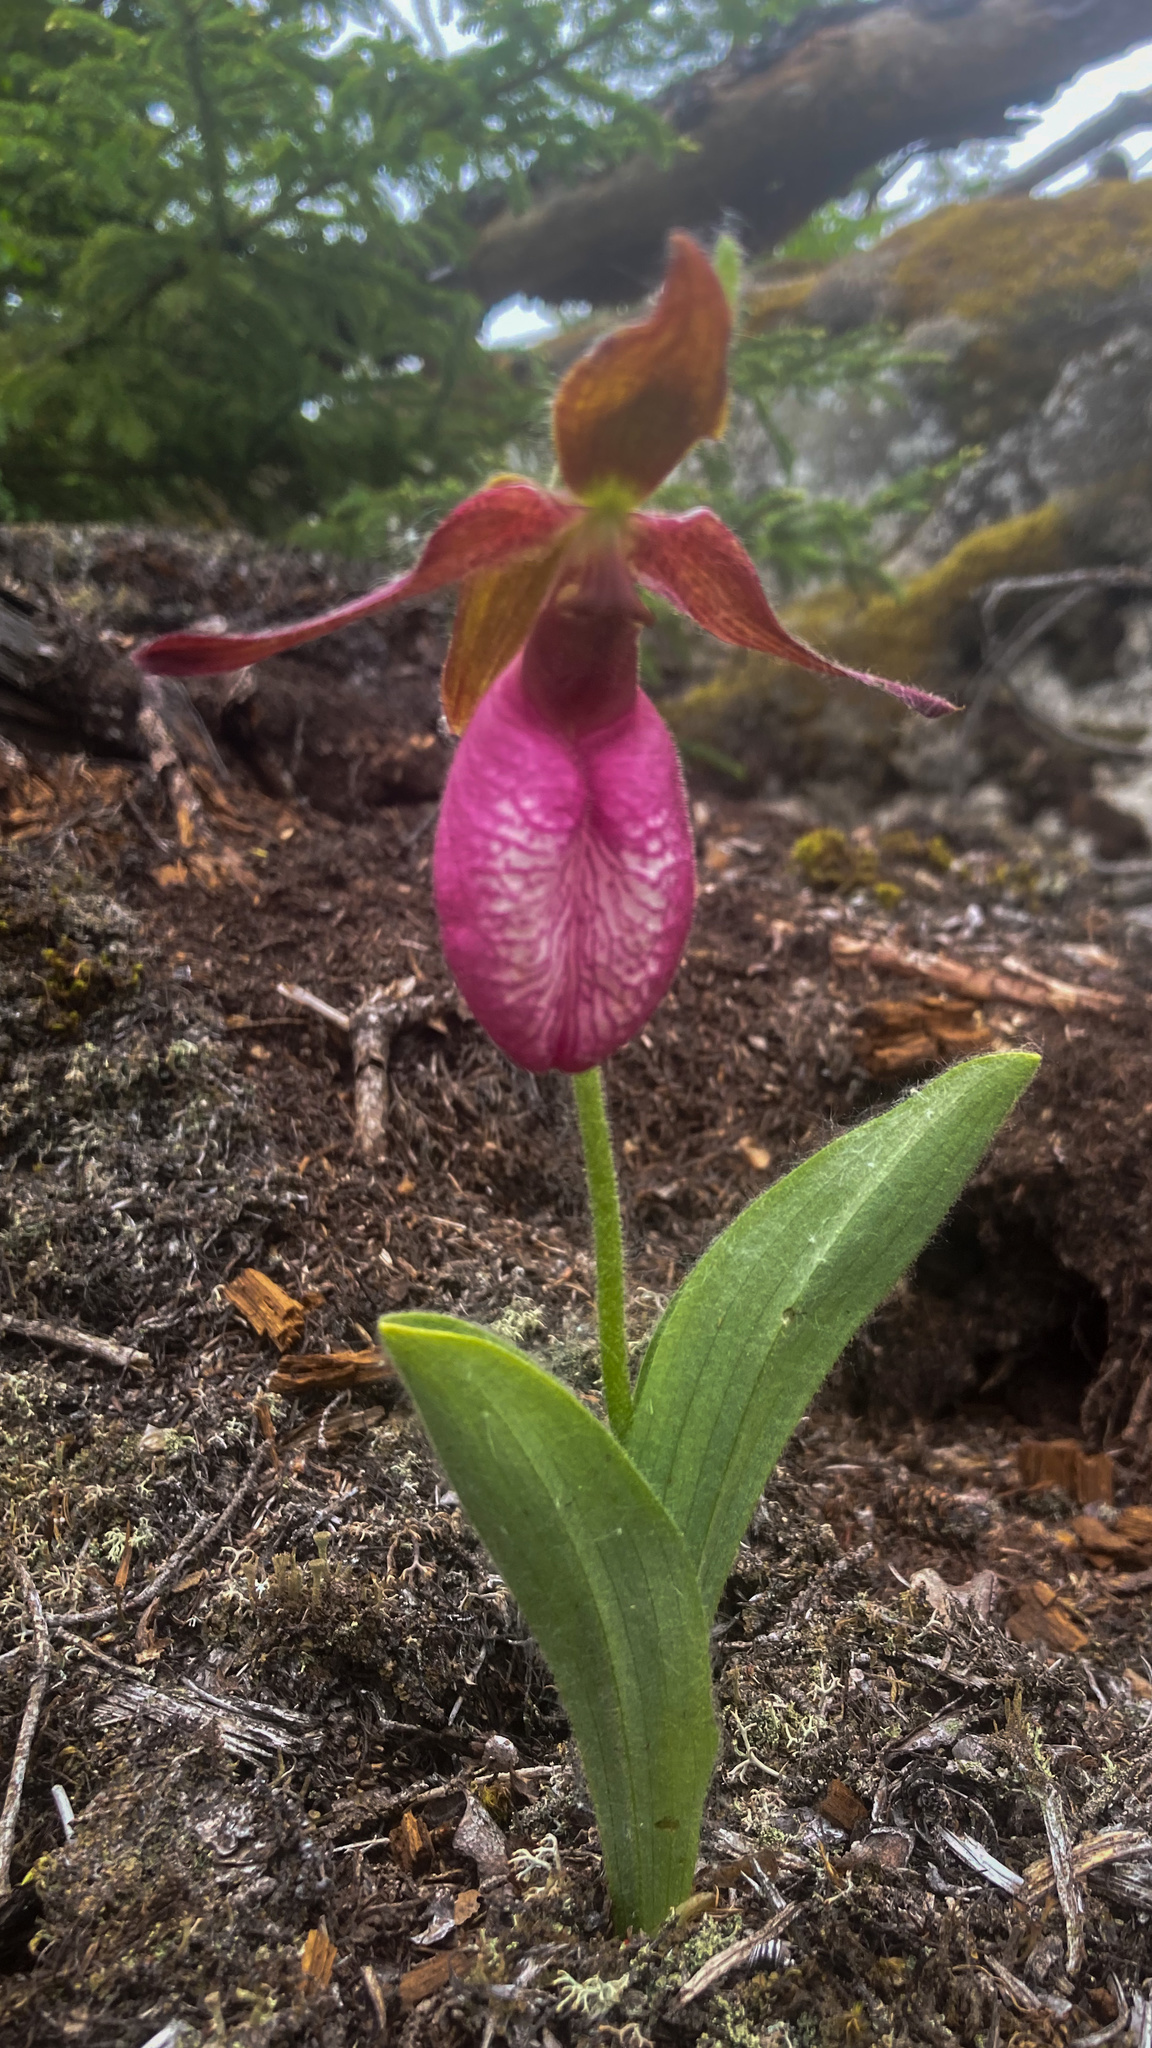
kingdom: Plantae
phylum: Tracheophyta
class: Liliopsida
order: Asparagales
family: Orchidaceae
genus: Cypripedium
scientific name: Cypripedium acaule
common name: Pink lady's-slipper
